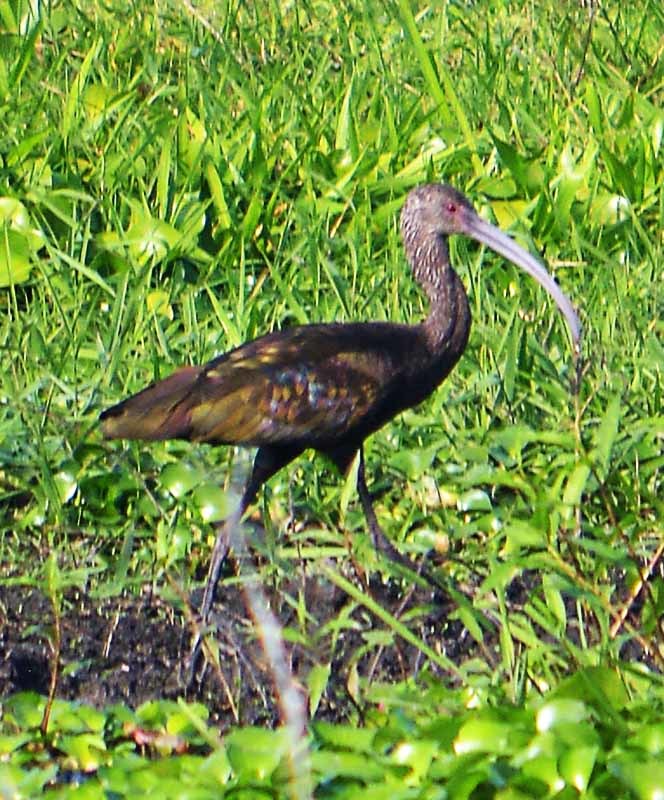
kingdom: Animalia
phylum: Chordata
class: Aves
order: Pelecaniformes
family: Threskiornithidae
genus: Plegadis
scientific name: Plegadis chihi
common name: White-faced ibis
